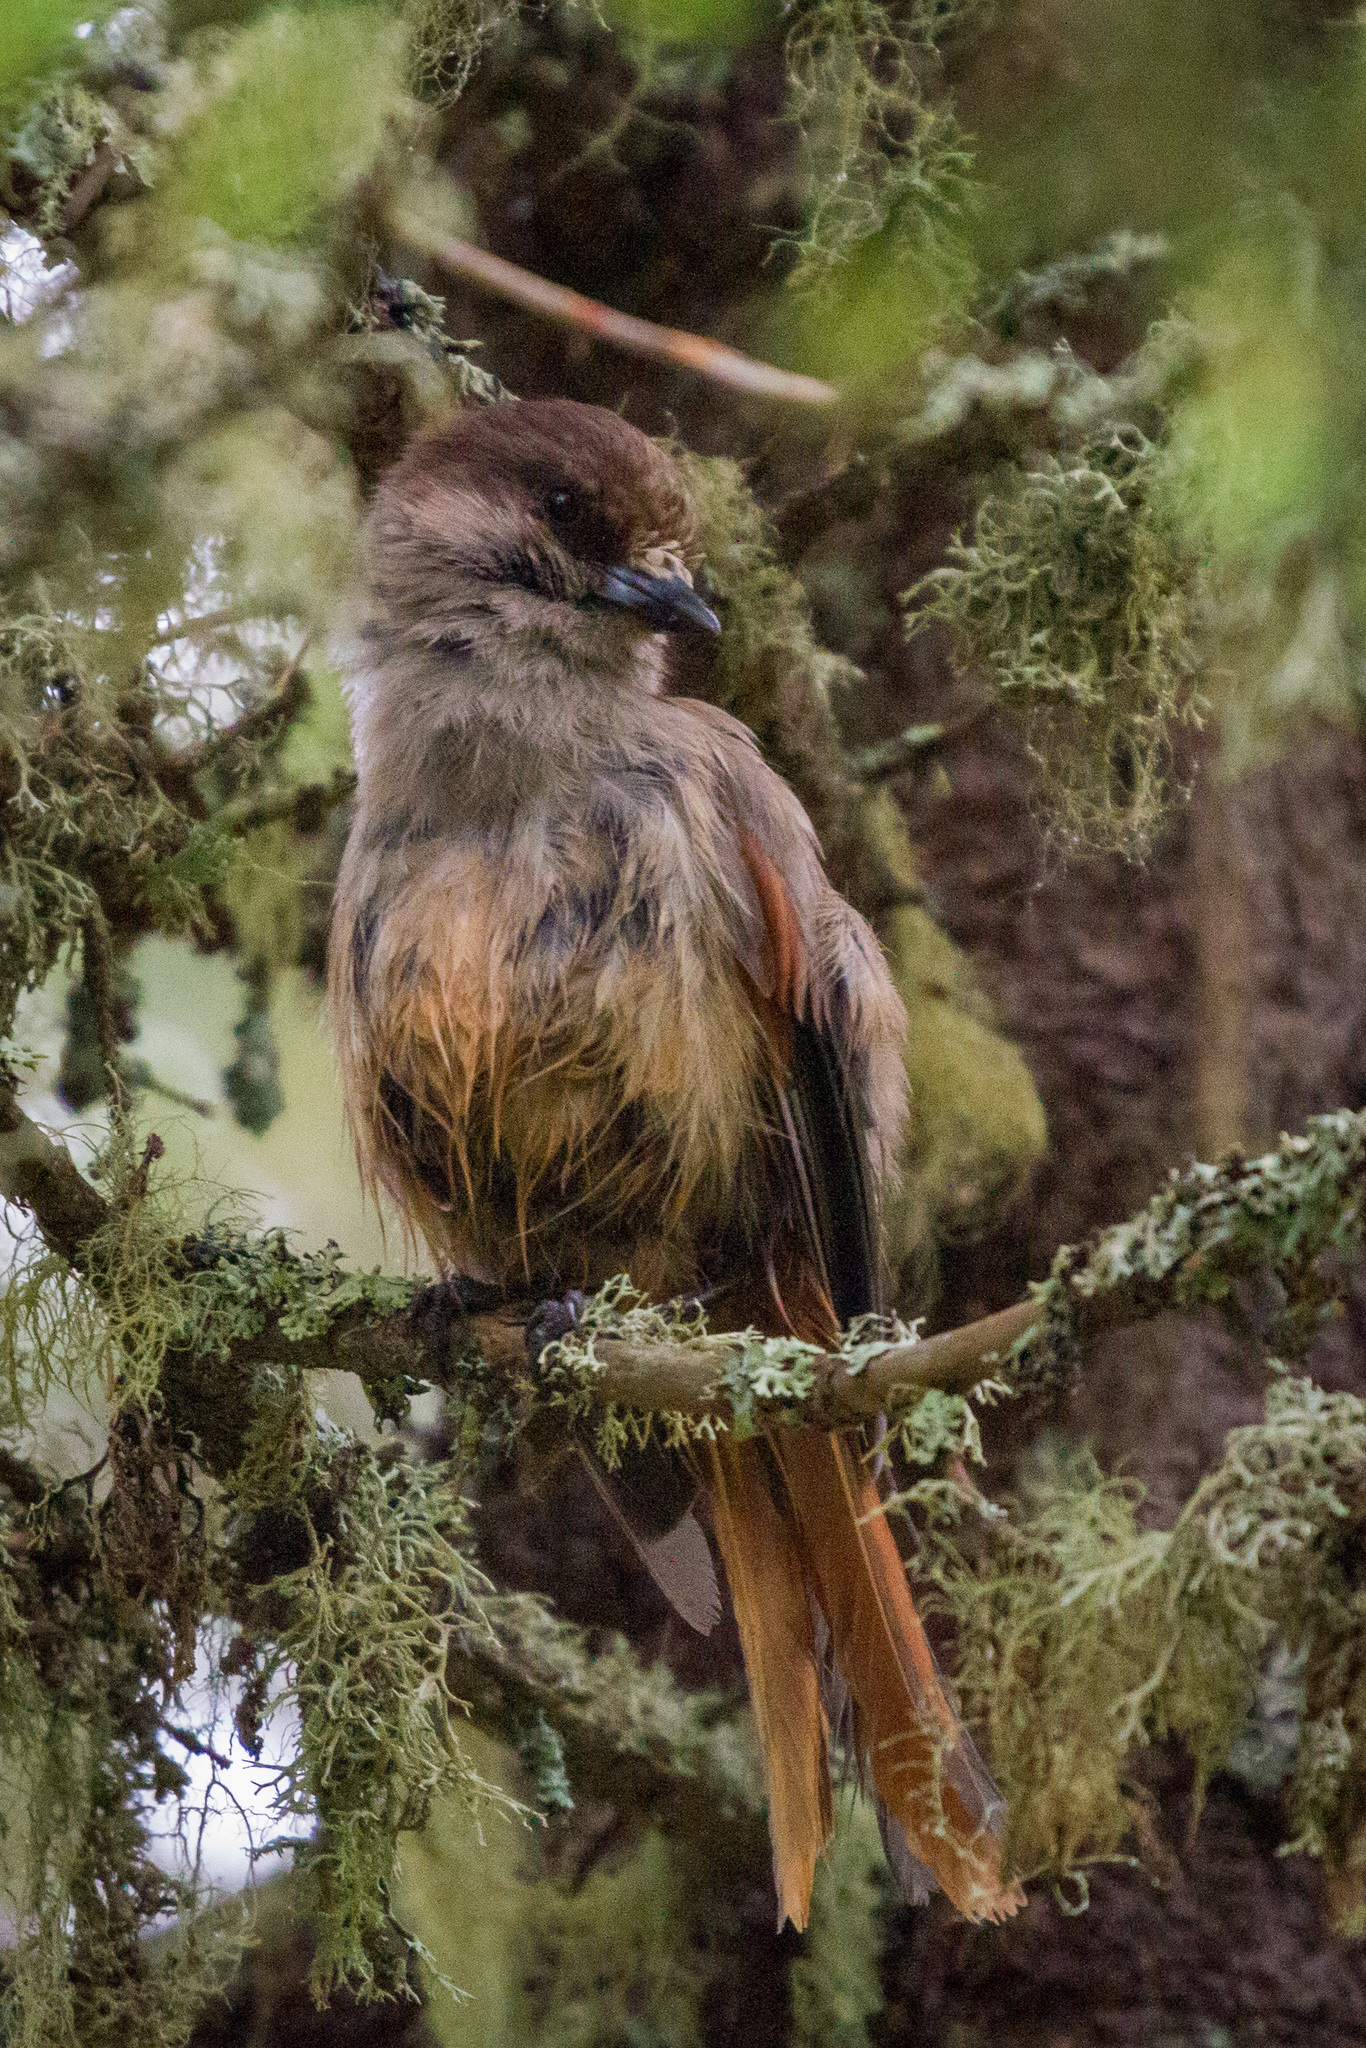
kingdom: Animalia
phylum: Chordata
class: Aves
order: Passeriformes
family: Corvidae
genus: Perisoreus
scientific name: Perisoreus infaustus
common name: Siberian jay
